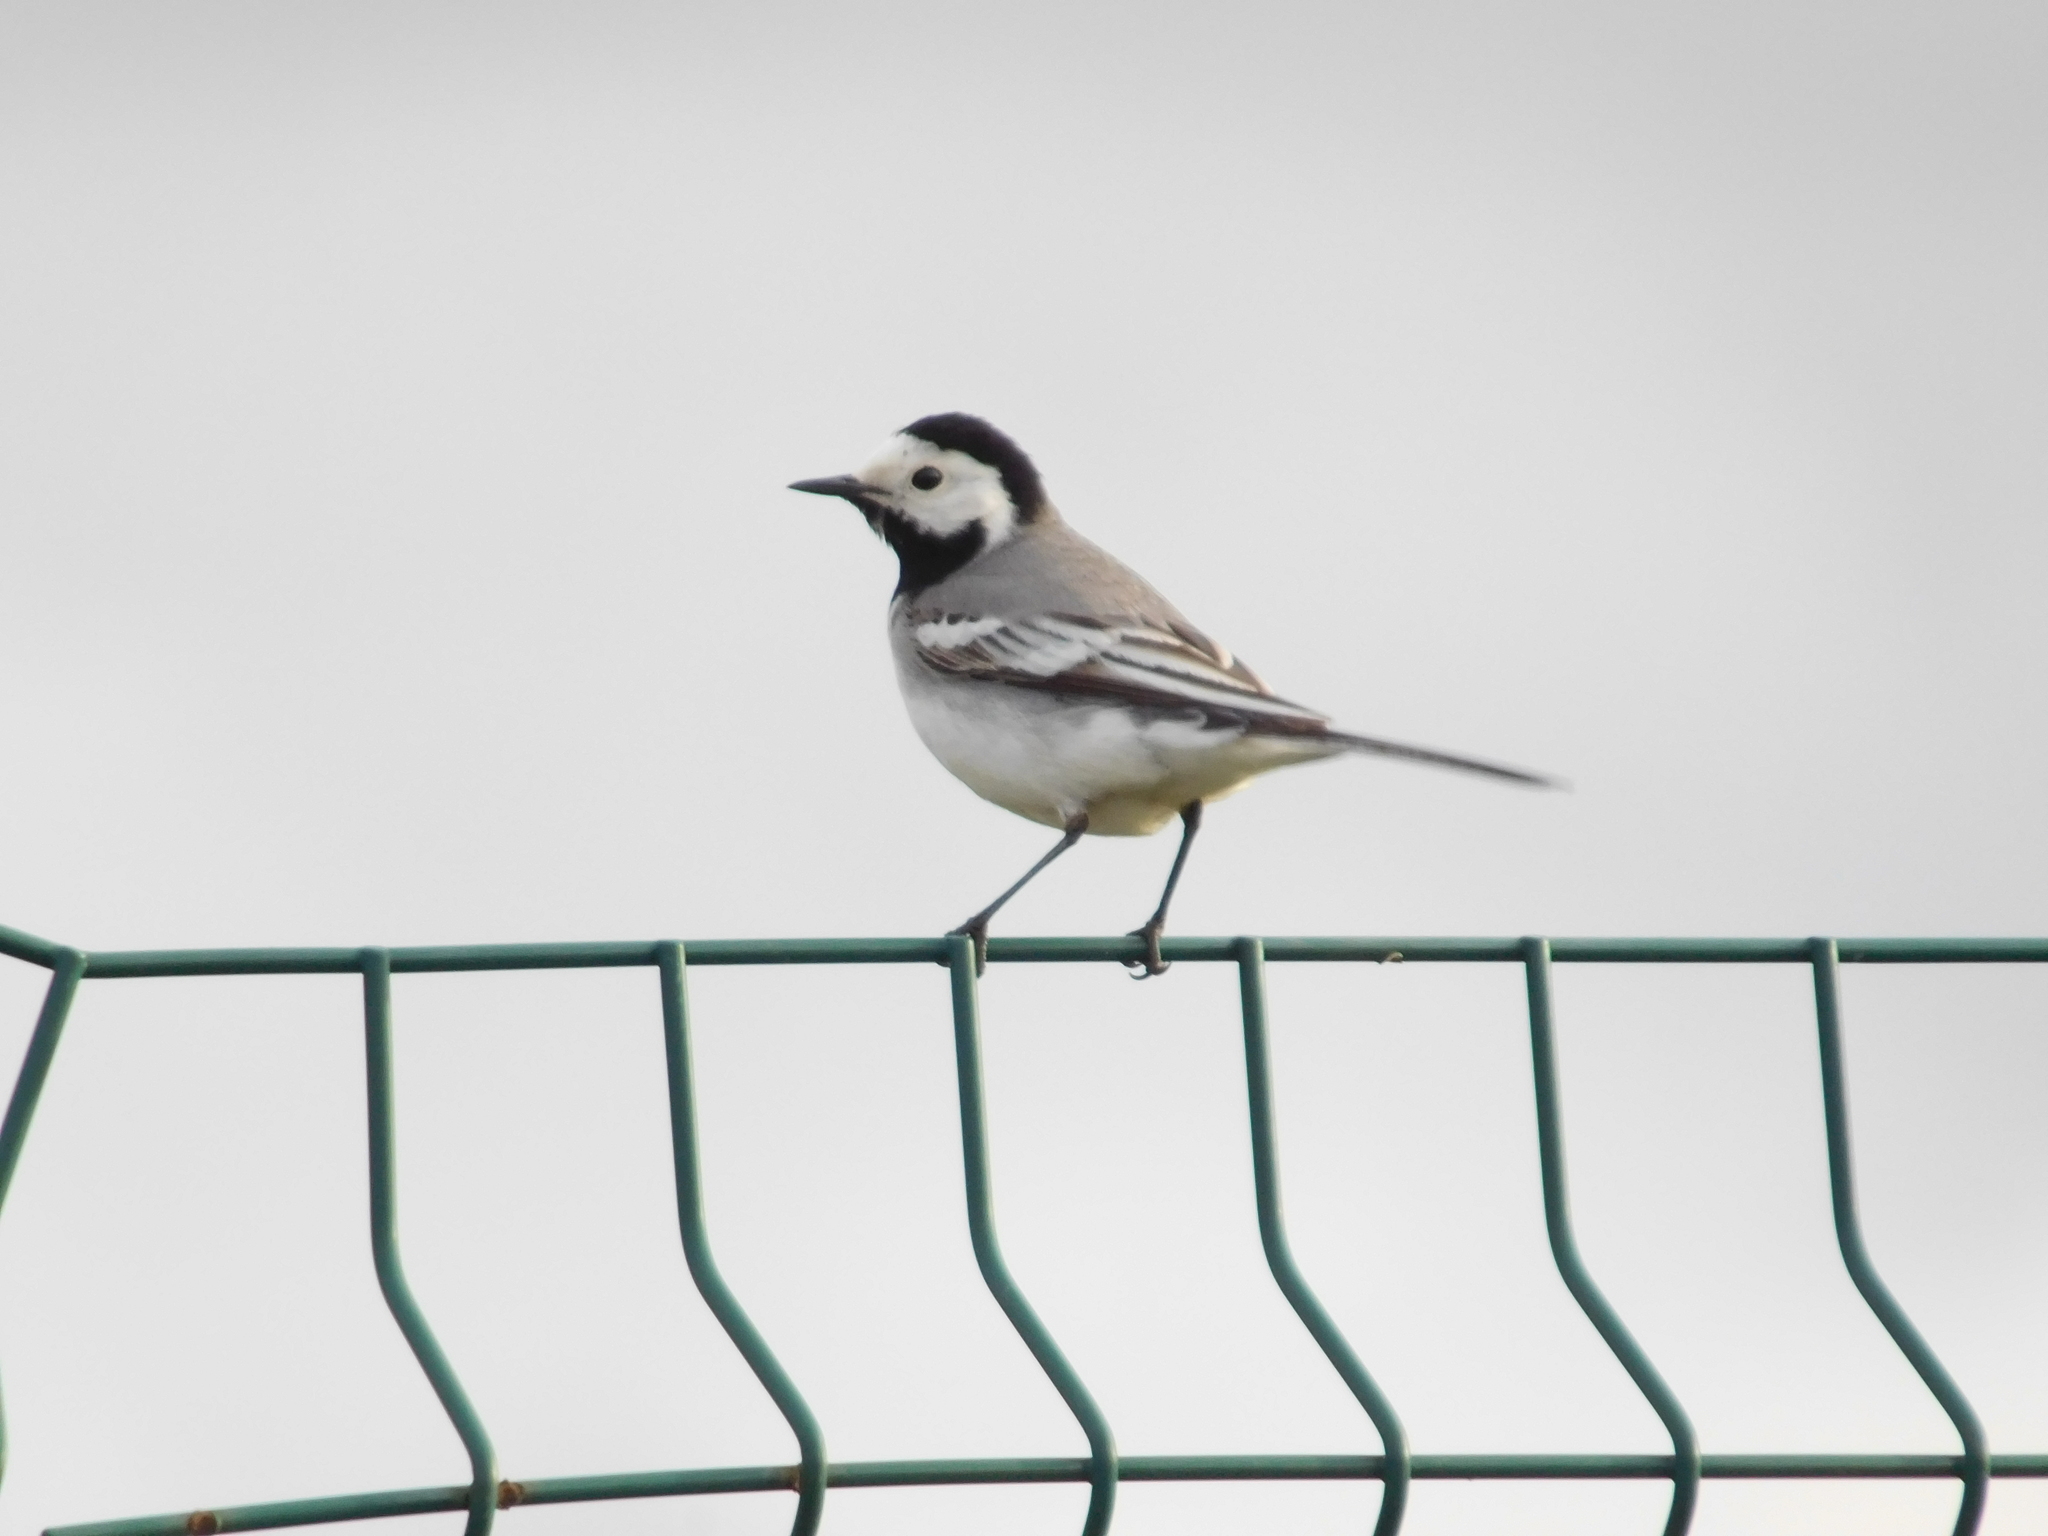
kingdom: Animalia
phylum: Chordata
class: Aves
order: Passeriformes
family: Motacillidae
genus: Motacilla
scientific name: Motacilla alba
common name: White wagtail
